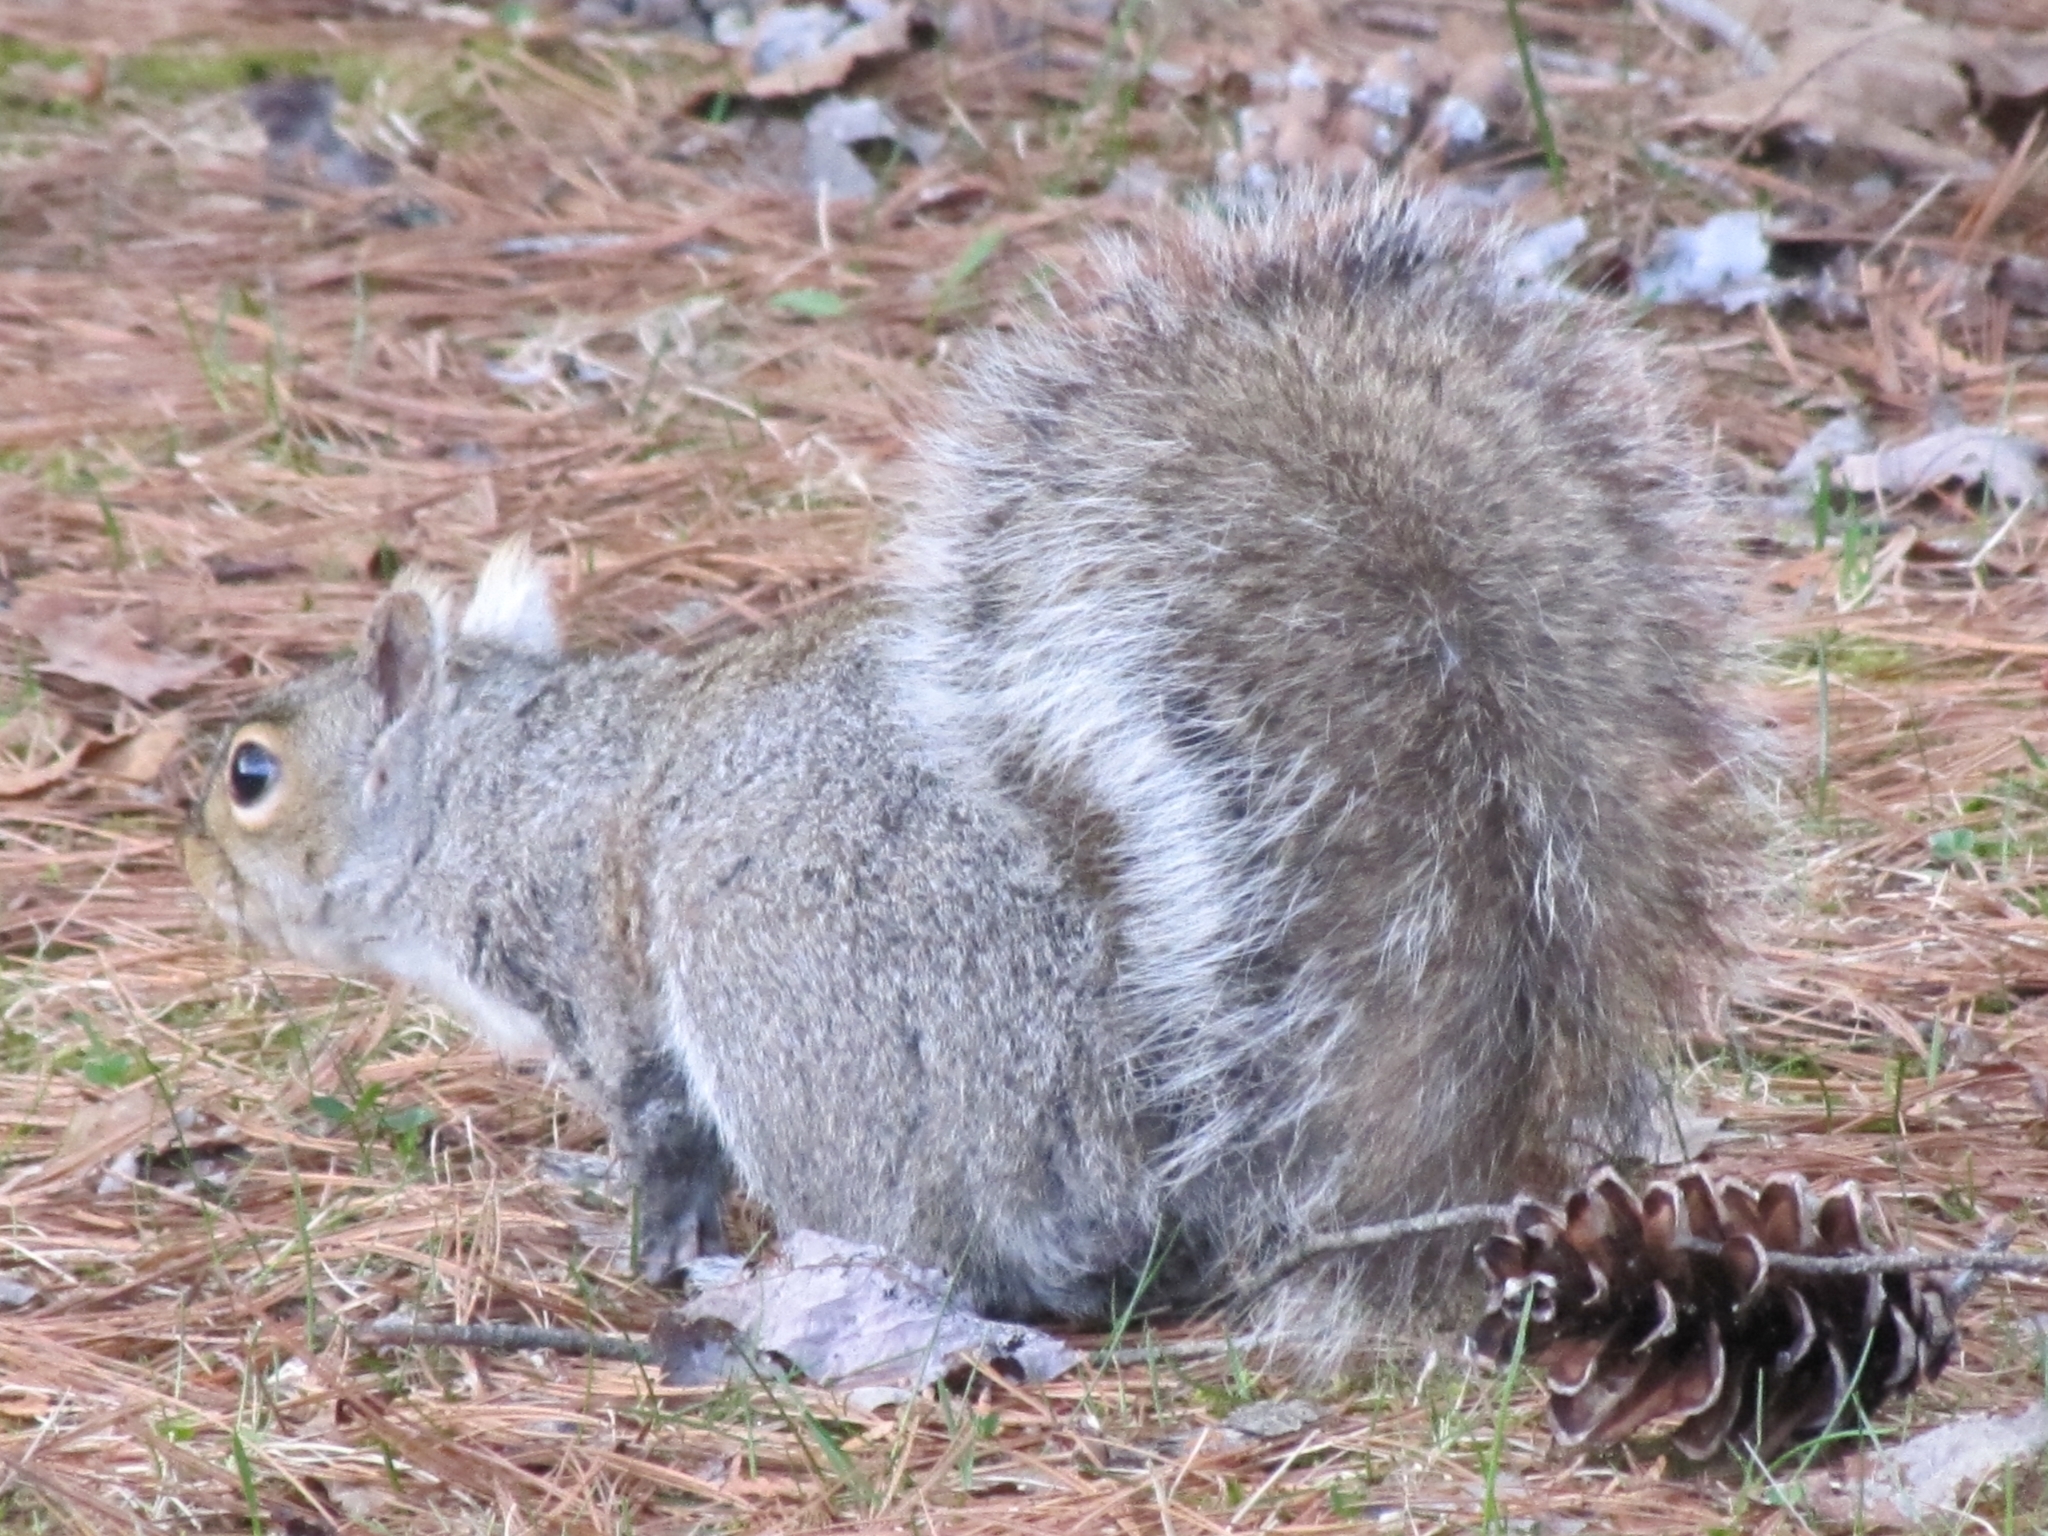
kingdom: Animalia
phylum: Chordata
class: Mammalia
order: Rodentia
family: Sciuridae
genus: Sciurus
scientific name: Sciurus carolinensis
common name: Eastern gray squirrel
